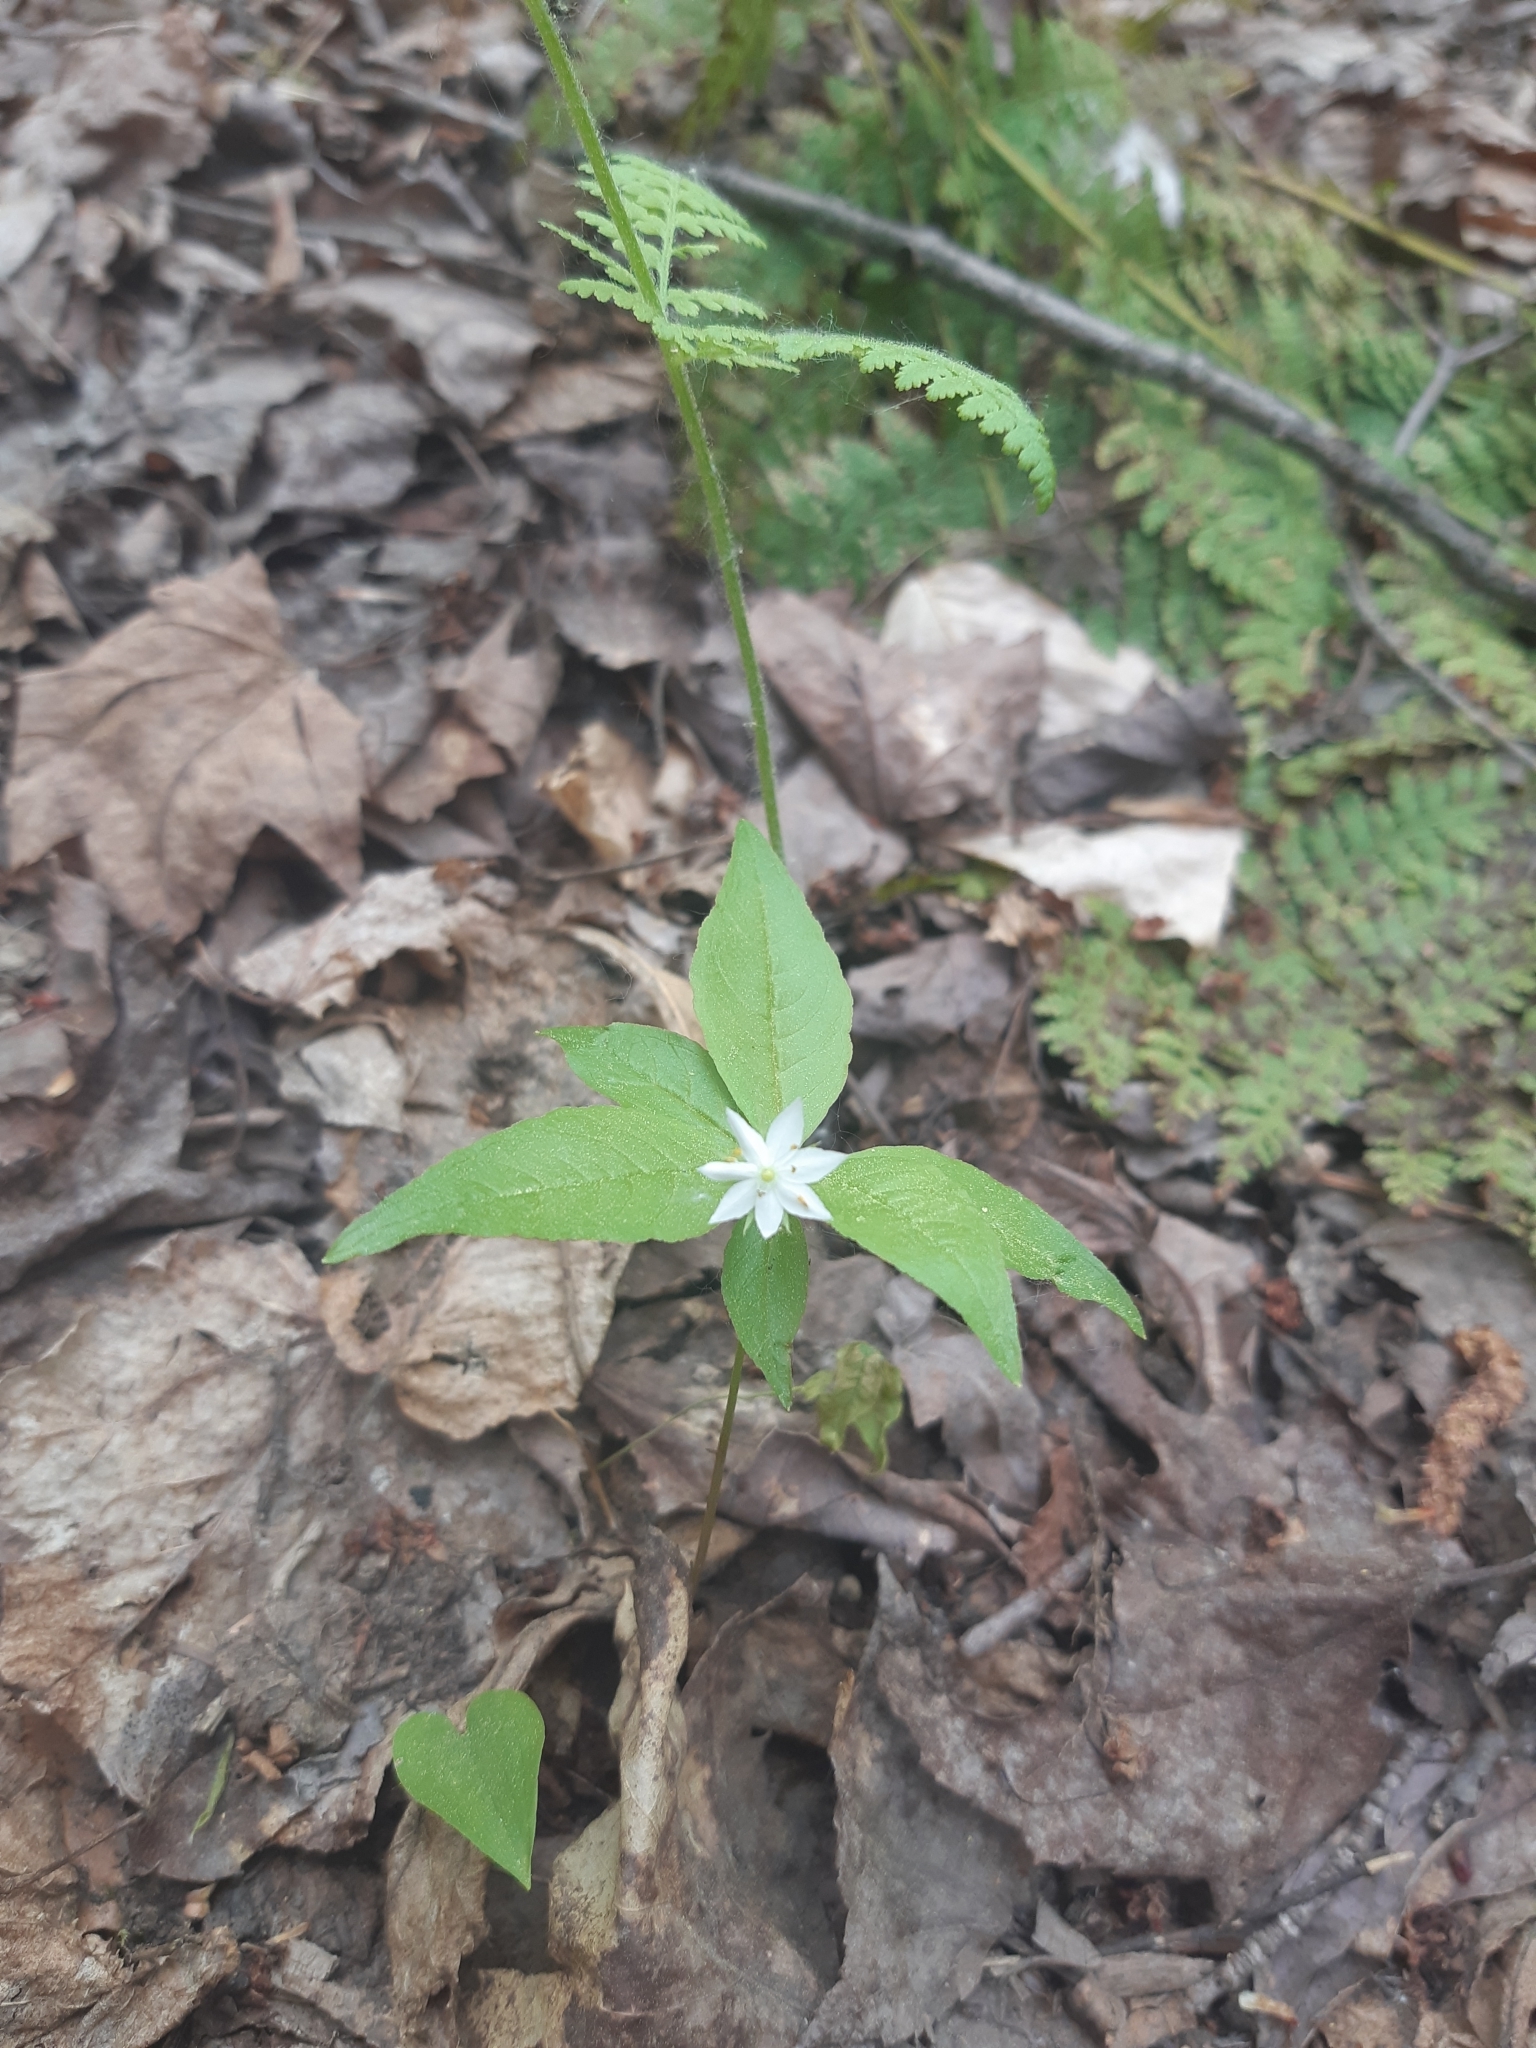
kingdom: Plantae
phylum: Tracheophyta
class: Magnoliopsida
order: Ericales
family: Primulaceae
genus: Lysimachia
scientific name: Lysimachia borealis
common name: American starflower
